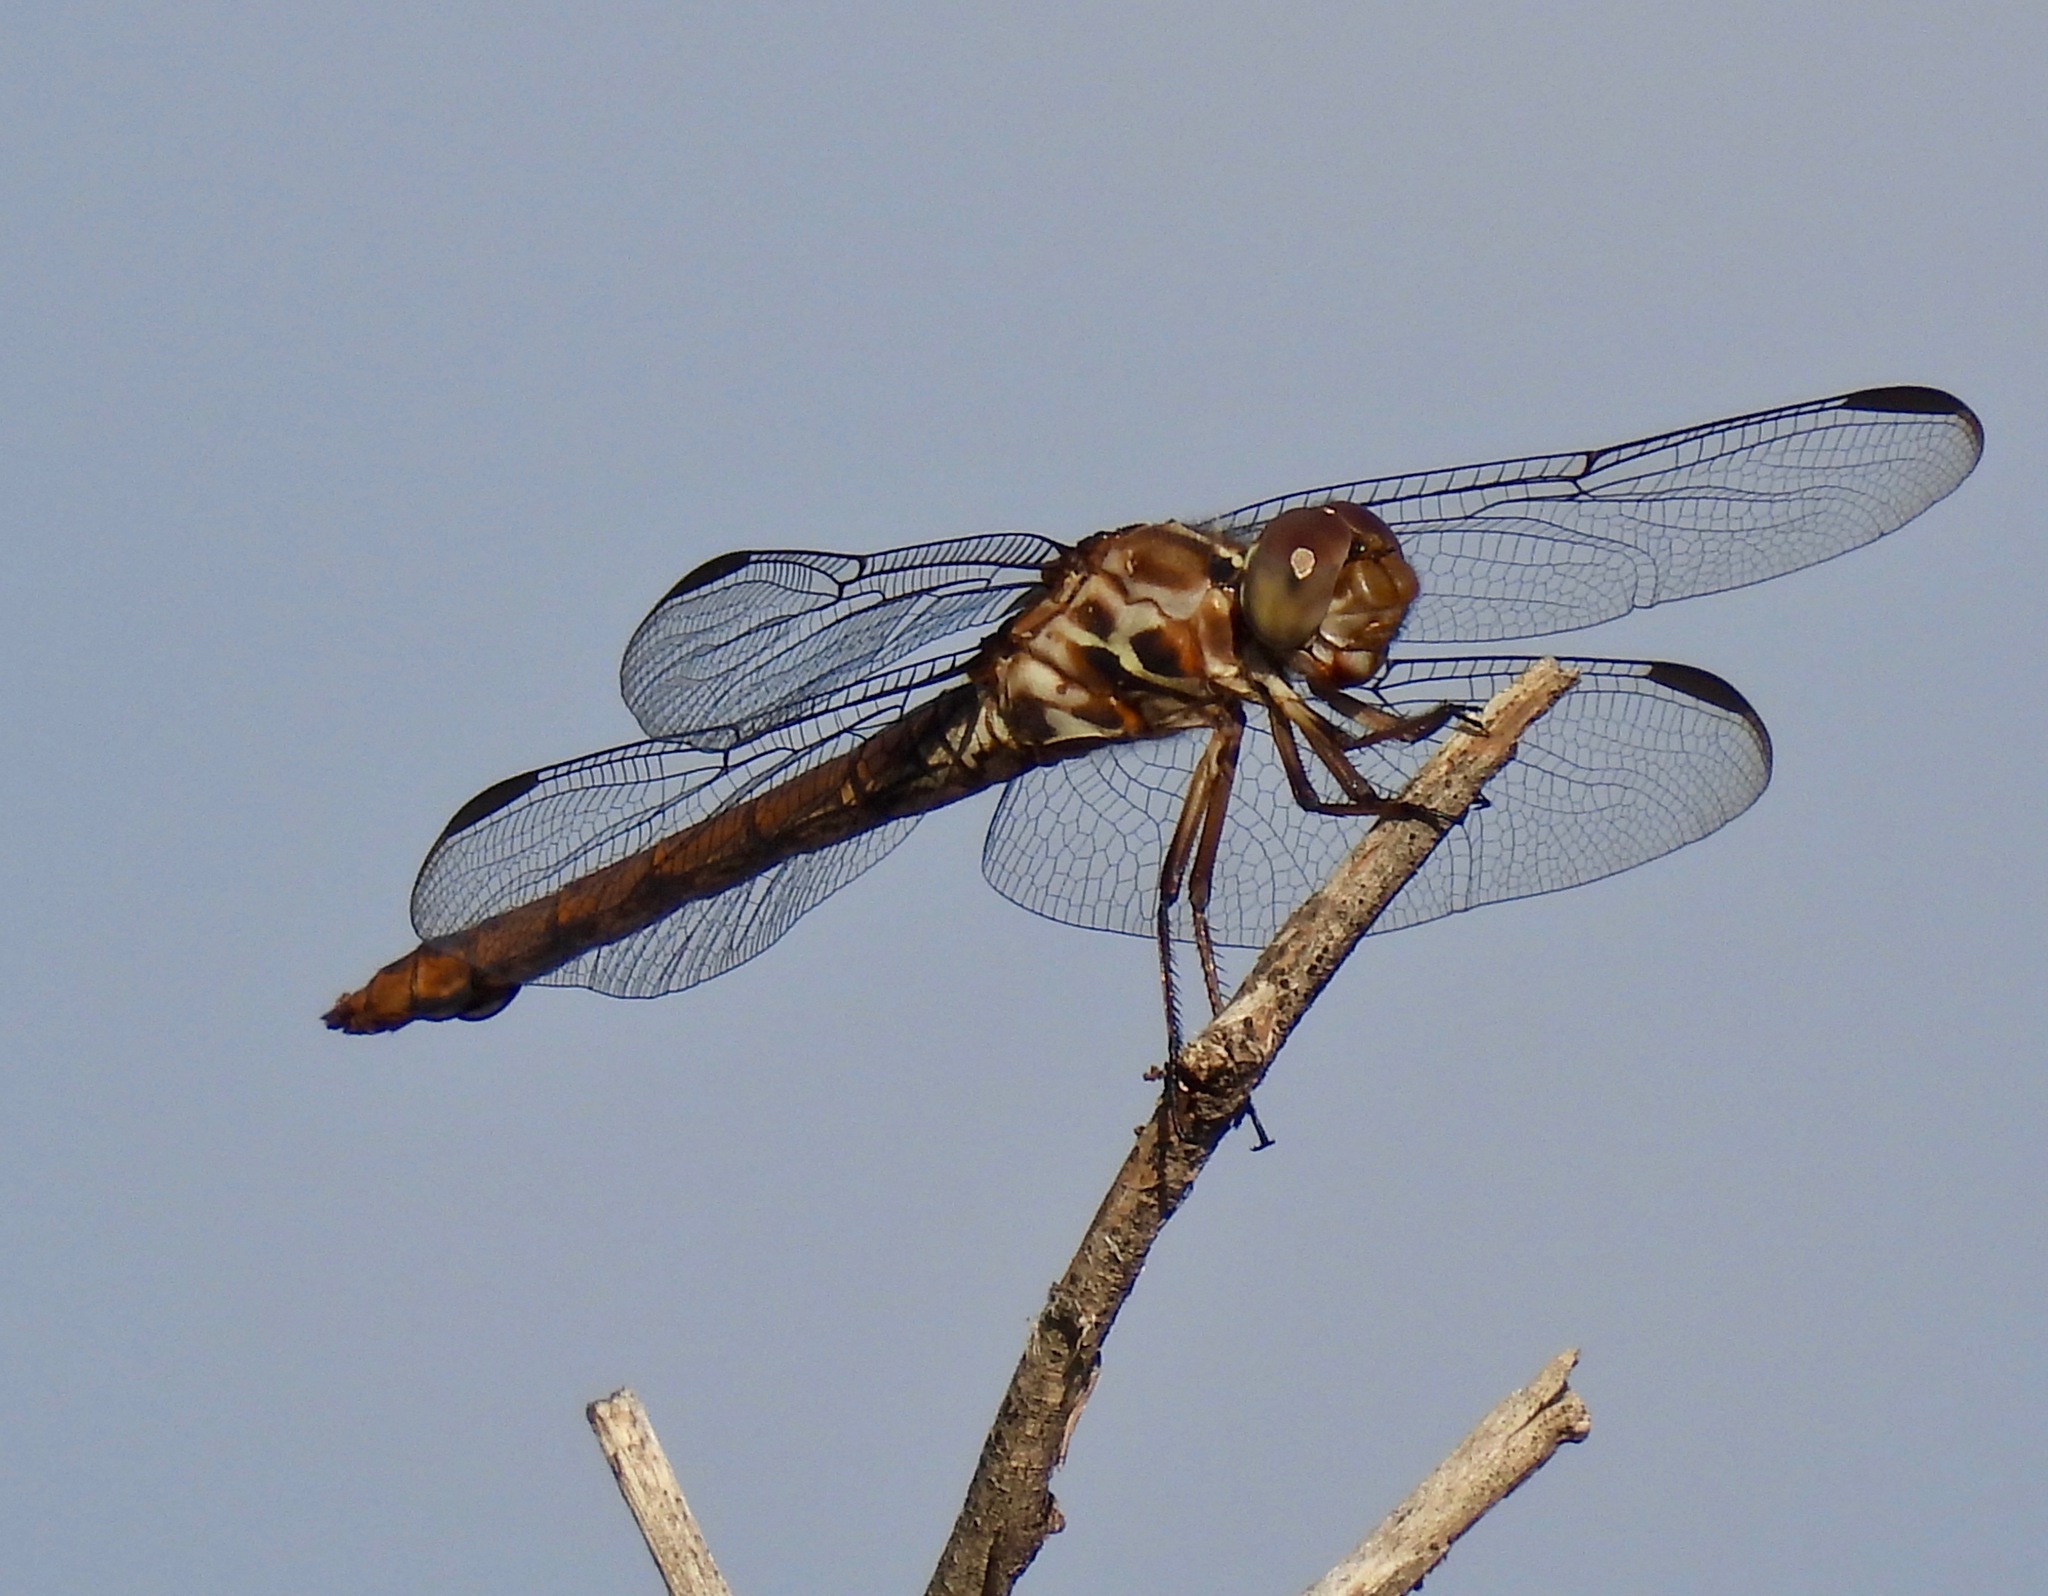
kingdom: Animalia
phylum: Arthropoda
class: Insecta
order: Odonata
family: Libellulidae
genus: Orthemis
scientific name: Orthemis ferruginea
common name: Roseate skimmer
